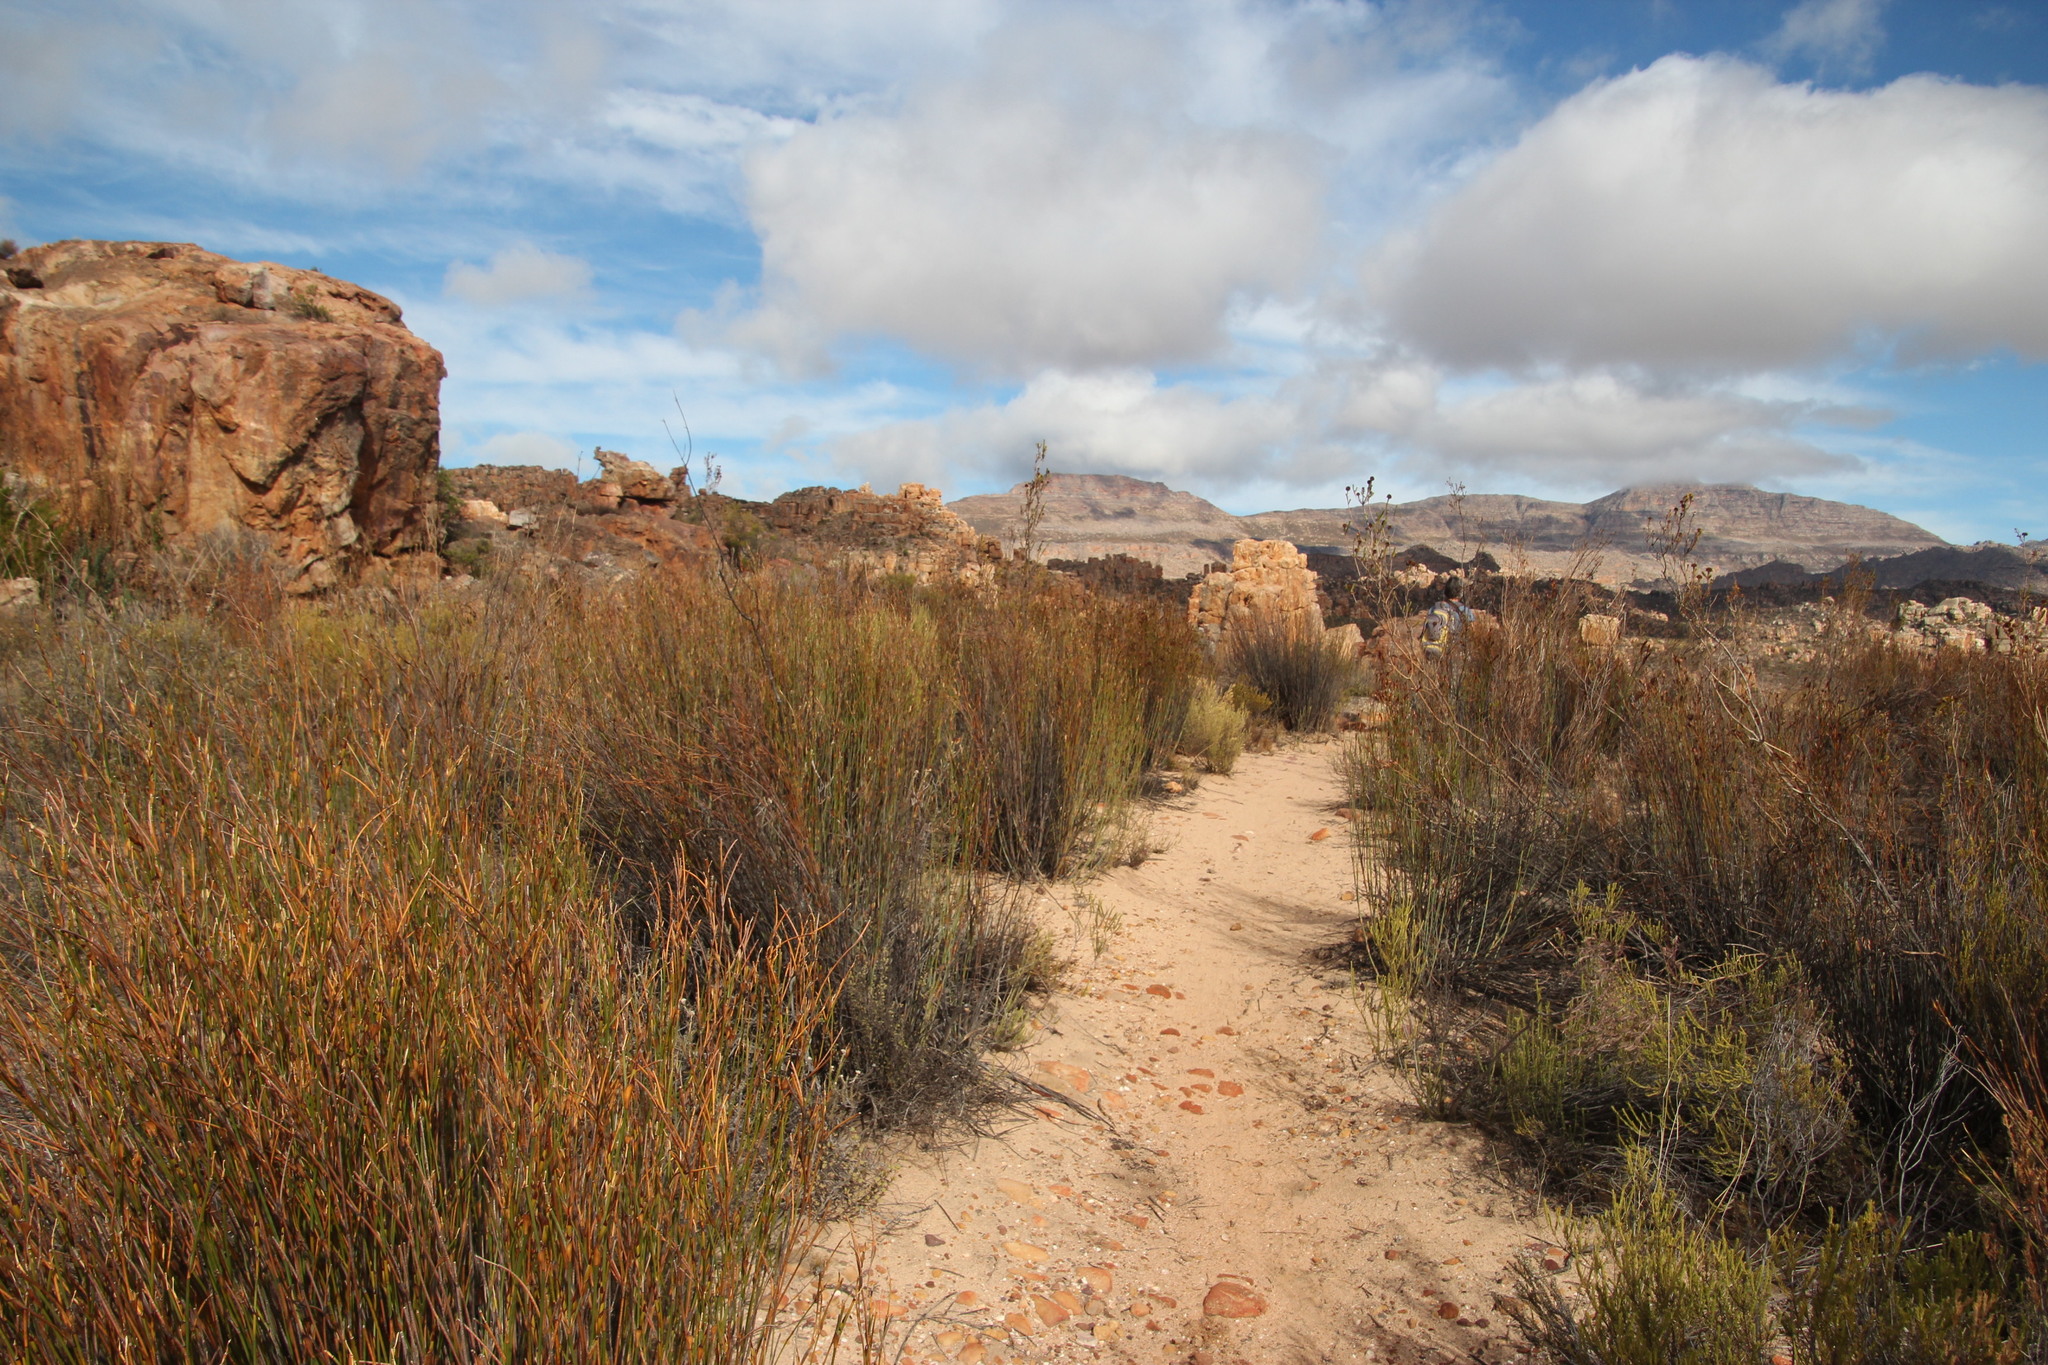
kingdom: Plantae
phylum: Tracheophyta
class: Liliopsida
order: Poales
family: Restionaceae
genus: Willdenowia
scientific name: Willdenowia glomerata
